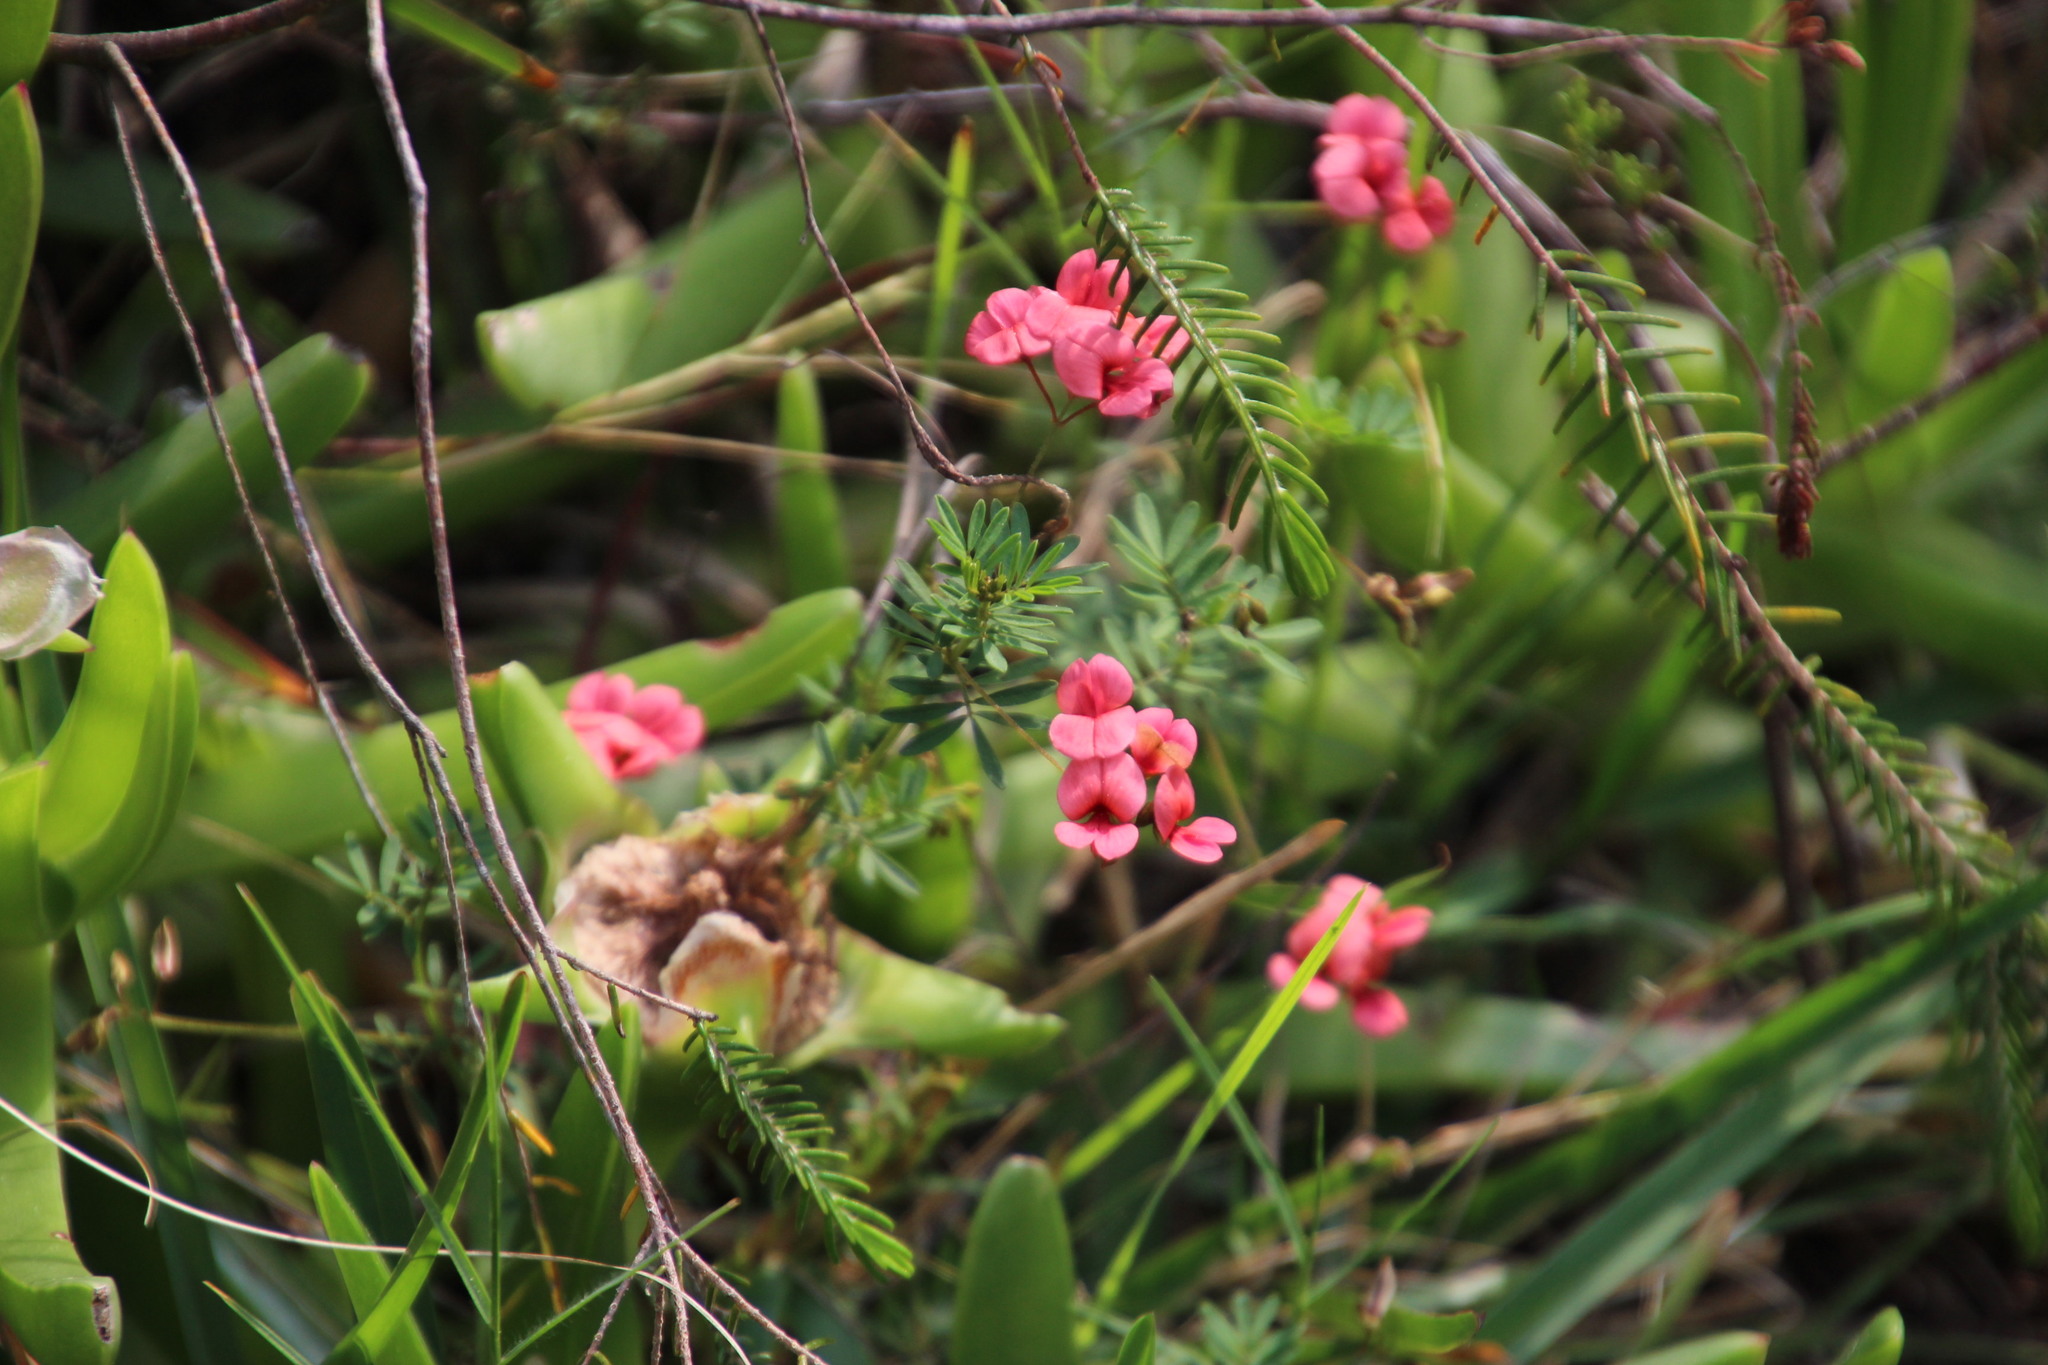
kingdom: Plantae
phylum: Tracheophyta
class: Magnoliopsida
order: Fabales
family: Fabaceae
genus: Indigofera
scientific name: Indigofera verrucosa
